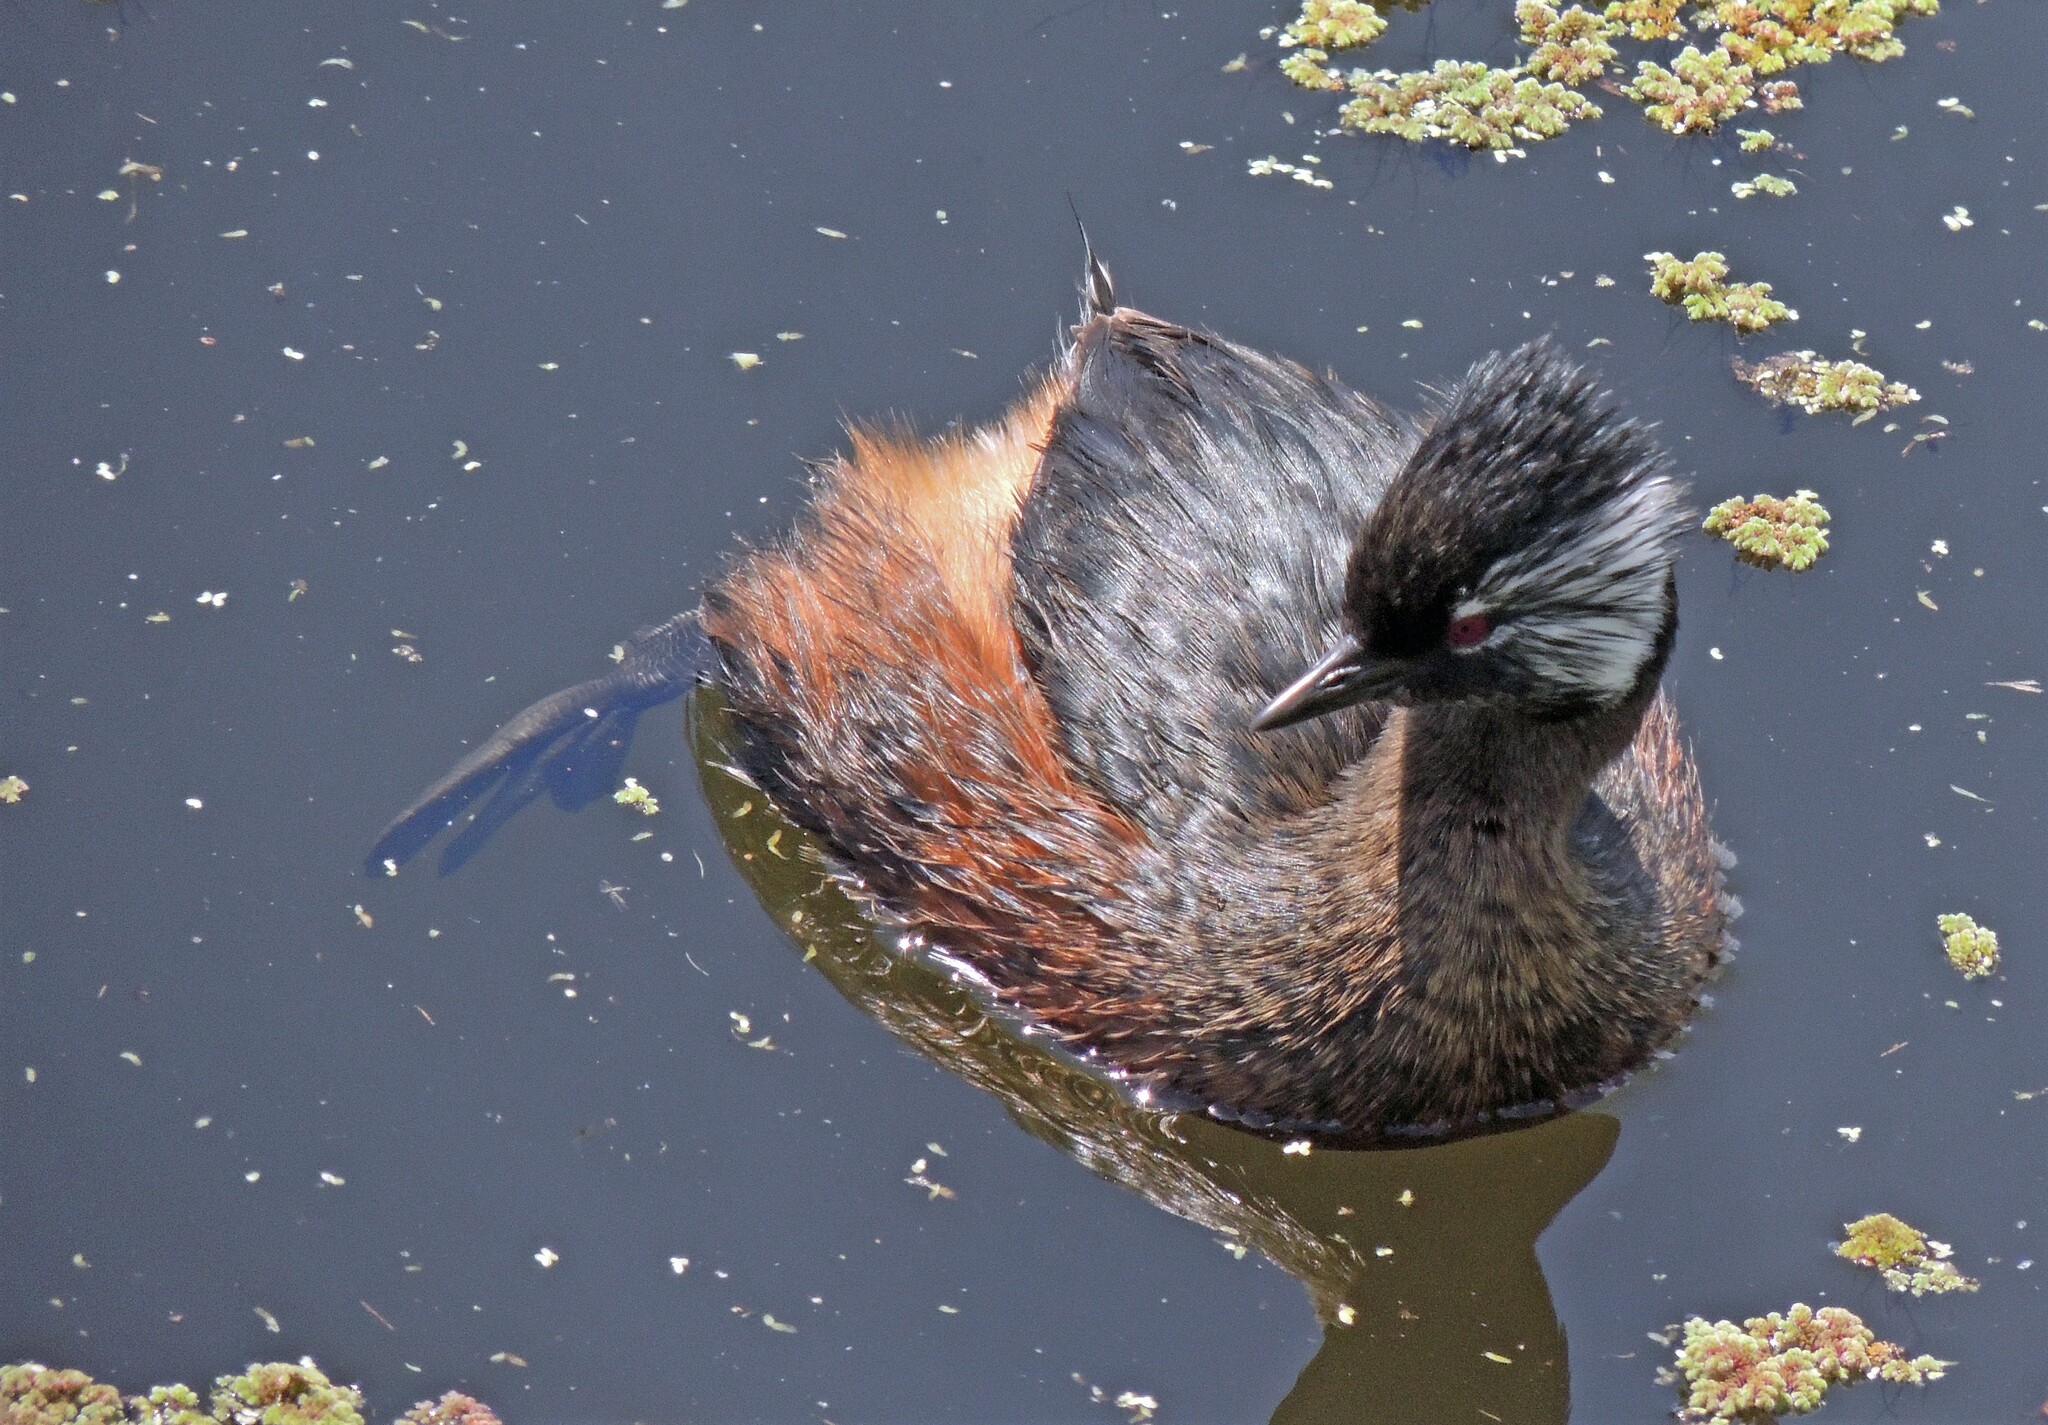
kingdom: Animalia
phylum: Chordata
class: Aves
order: Podicipediformes
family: Podicipedidae
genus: Rollandia
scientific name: Rollandia rolland
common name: White-tufted grebe
